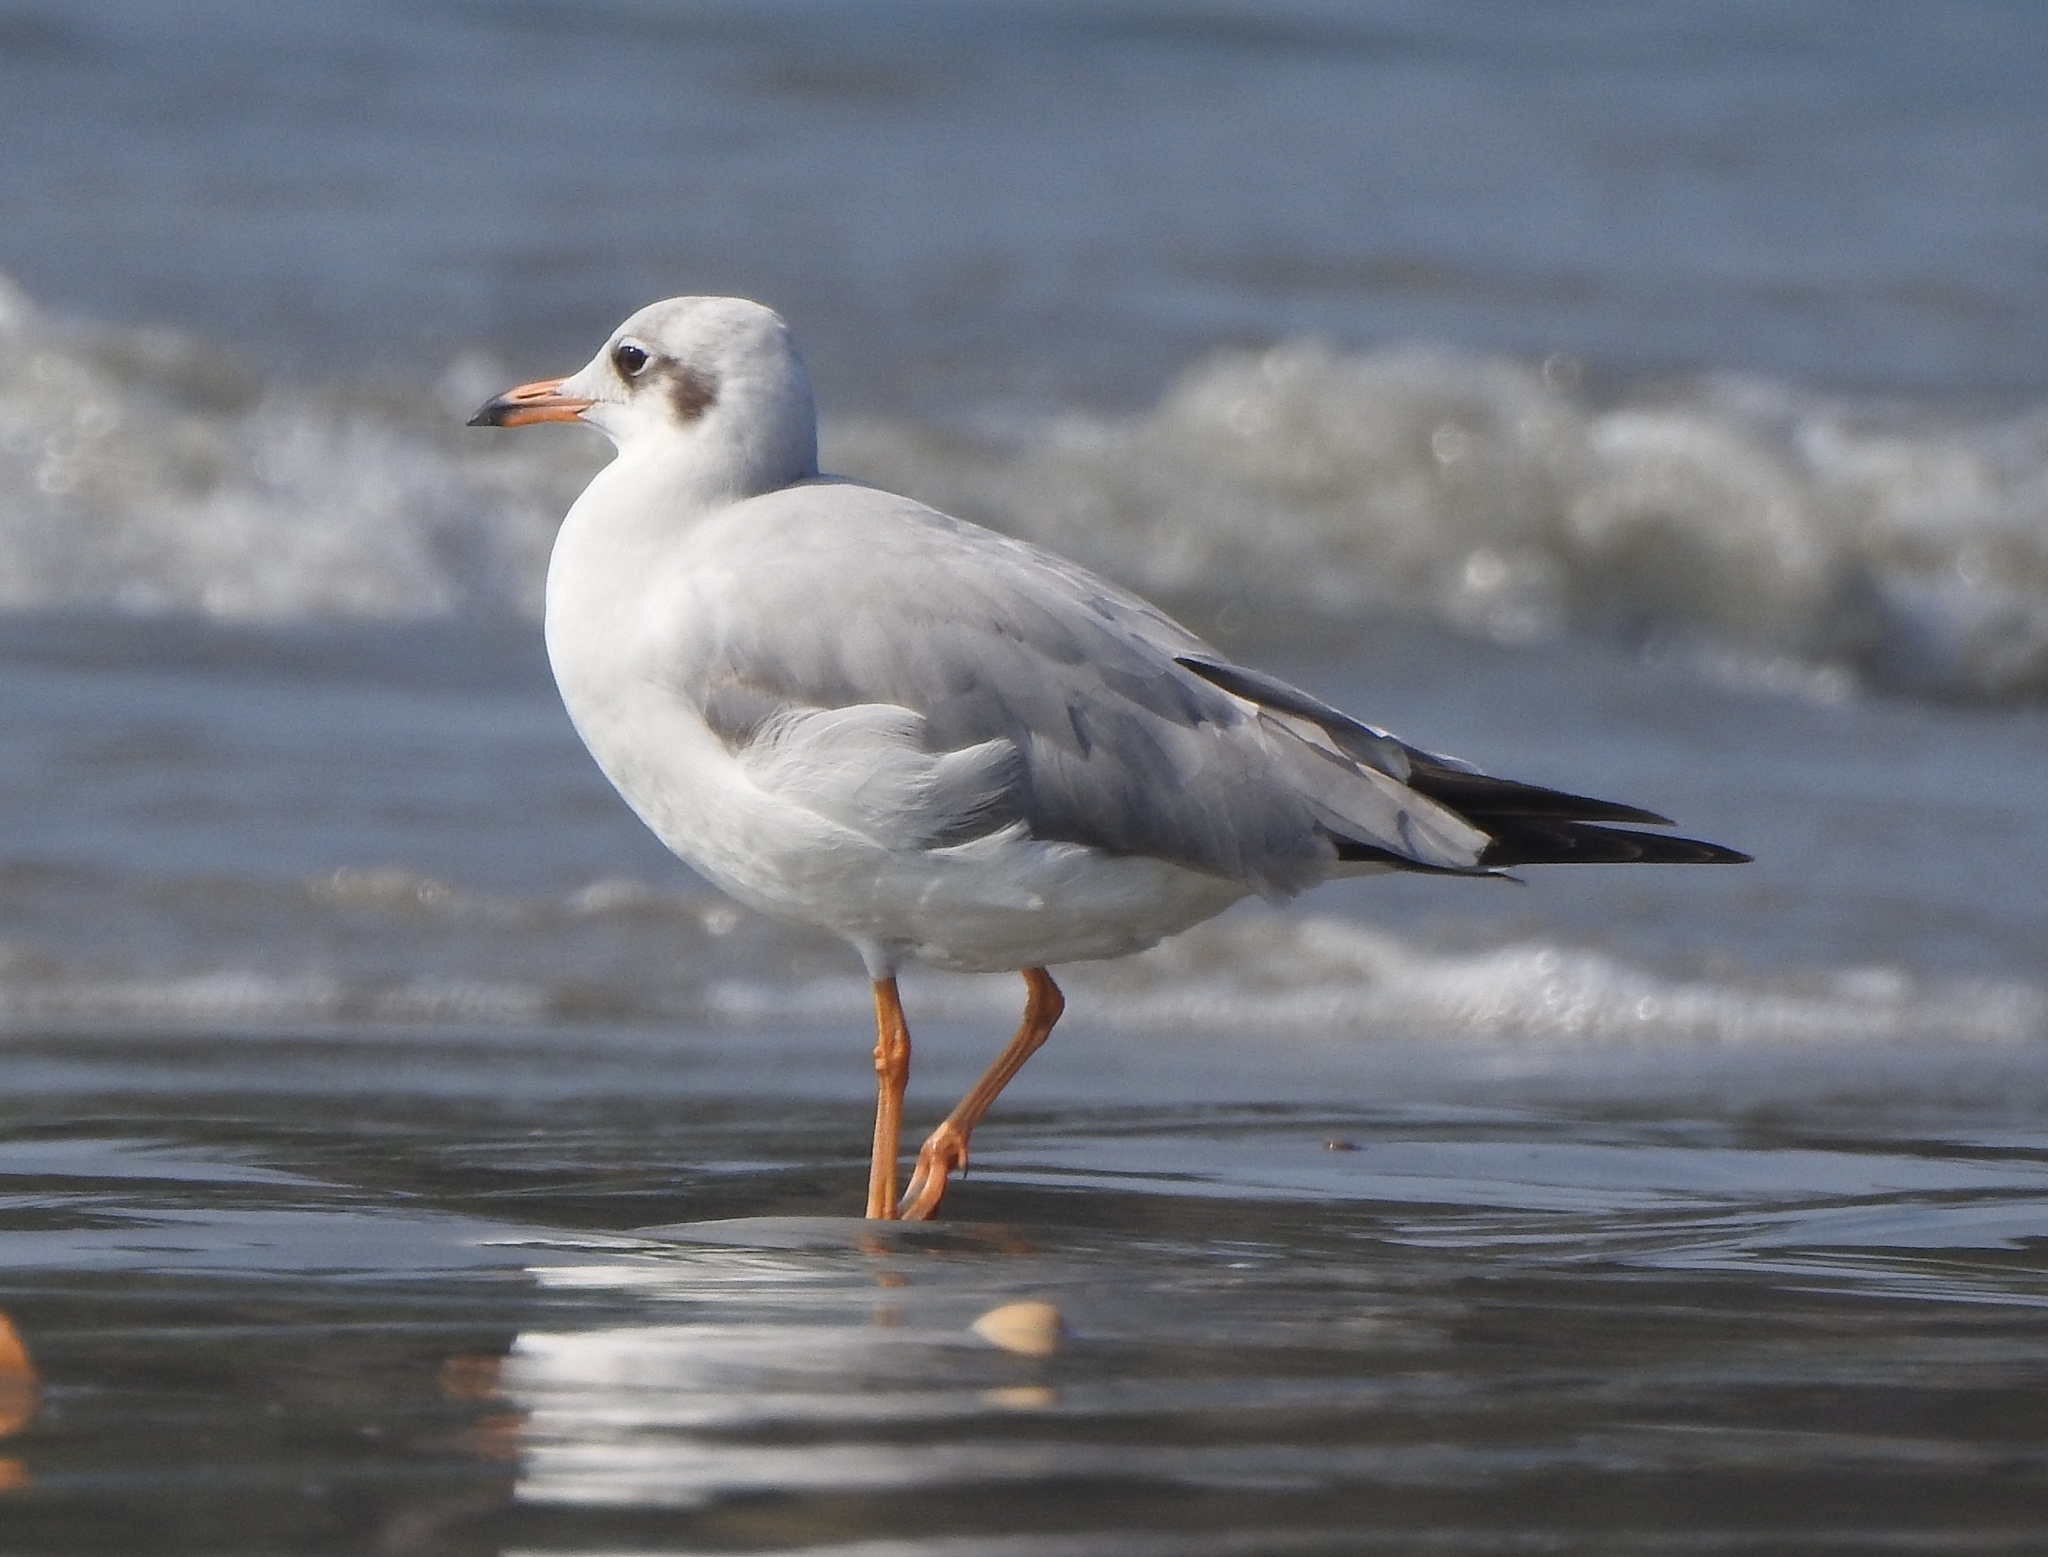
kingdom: Animalia
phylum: Chordata
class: Aves
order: Charadriiformes
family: Laridae
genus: Chroicocephalus
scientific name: Chroicocephalus brunnicephalus
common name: Brown-headed gull
